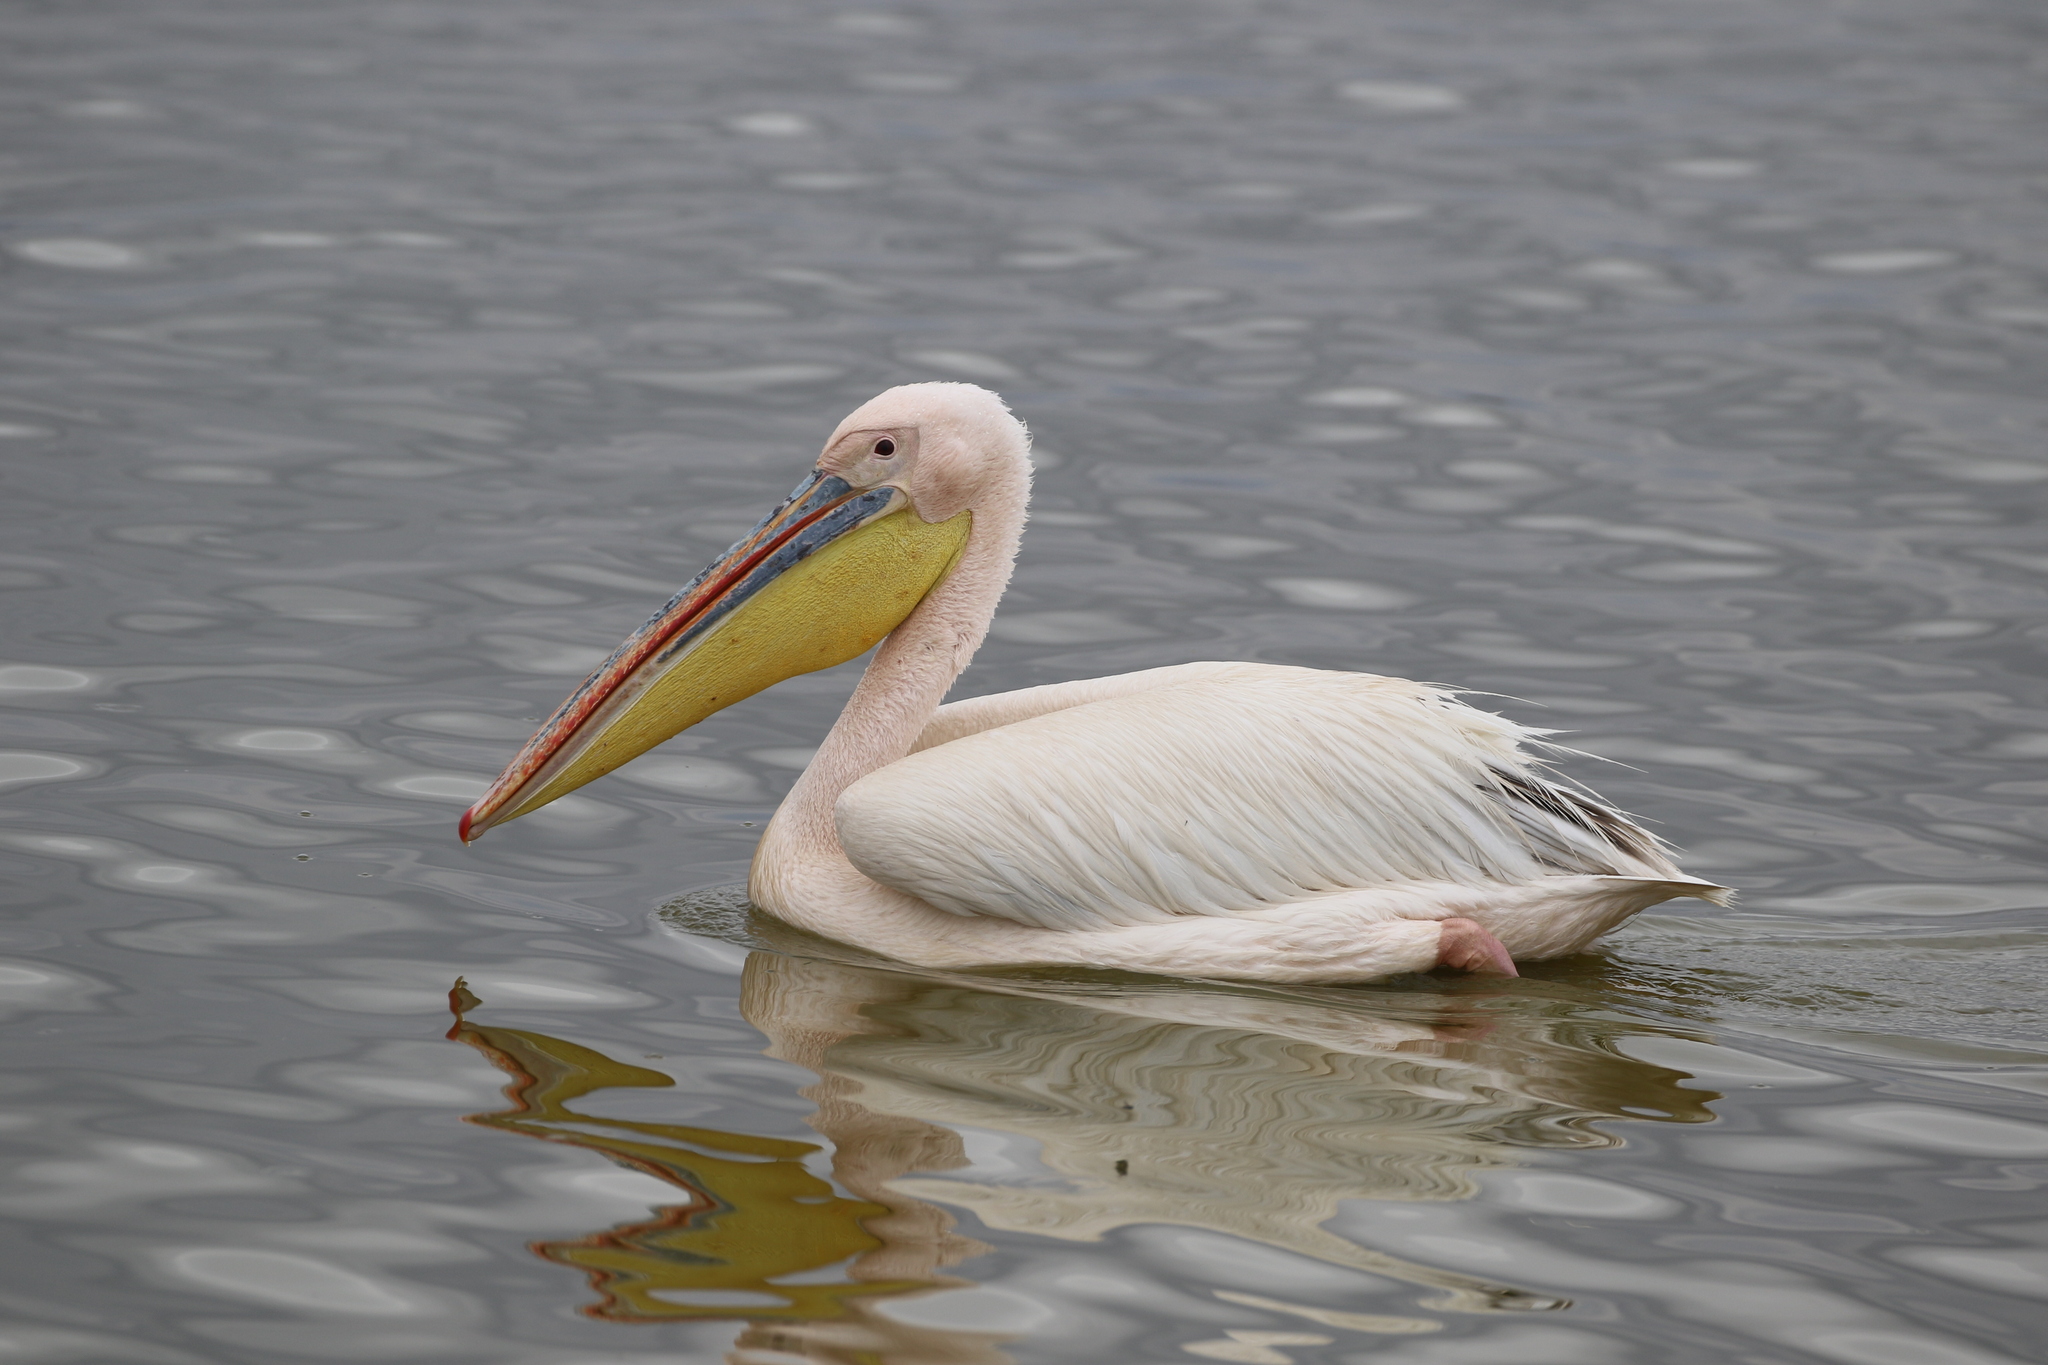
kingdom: Animalia
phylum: Chordata
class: Aves
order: Pelecaniformes
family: Pelecanidae
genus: Pelecanus
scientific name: Pelecanus onocrotalus
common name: Great white pelican
